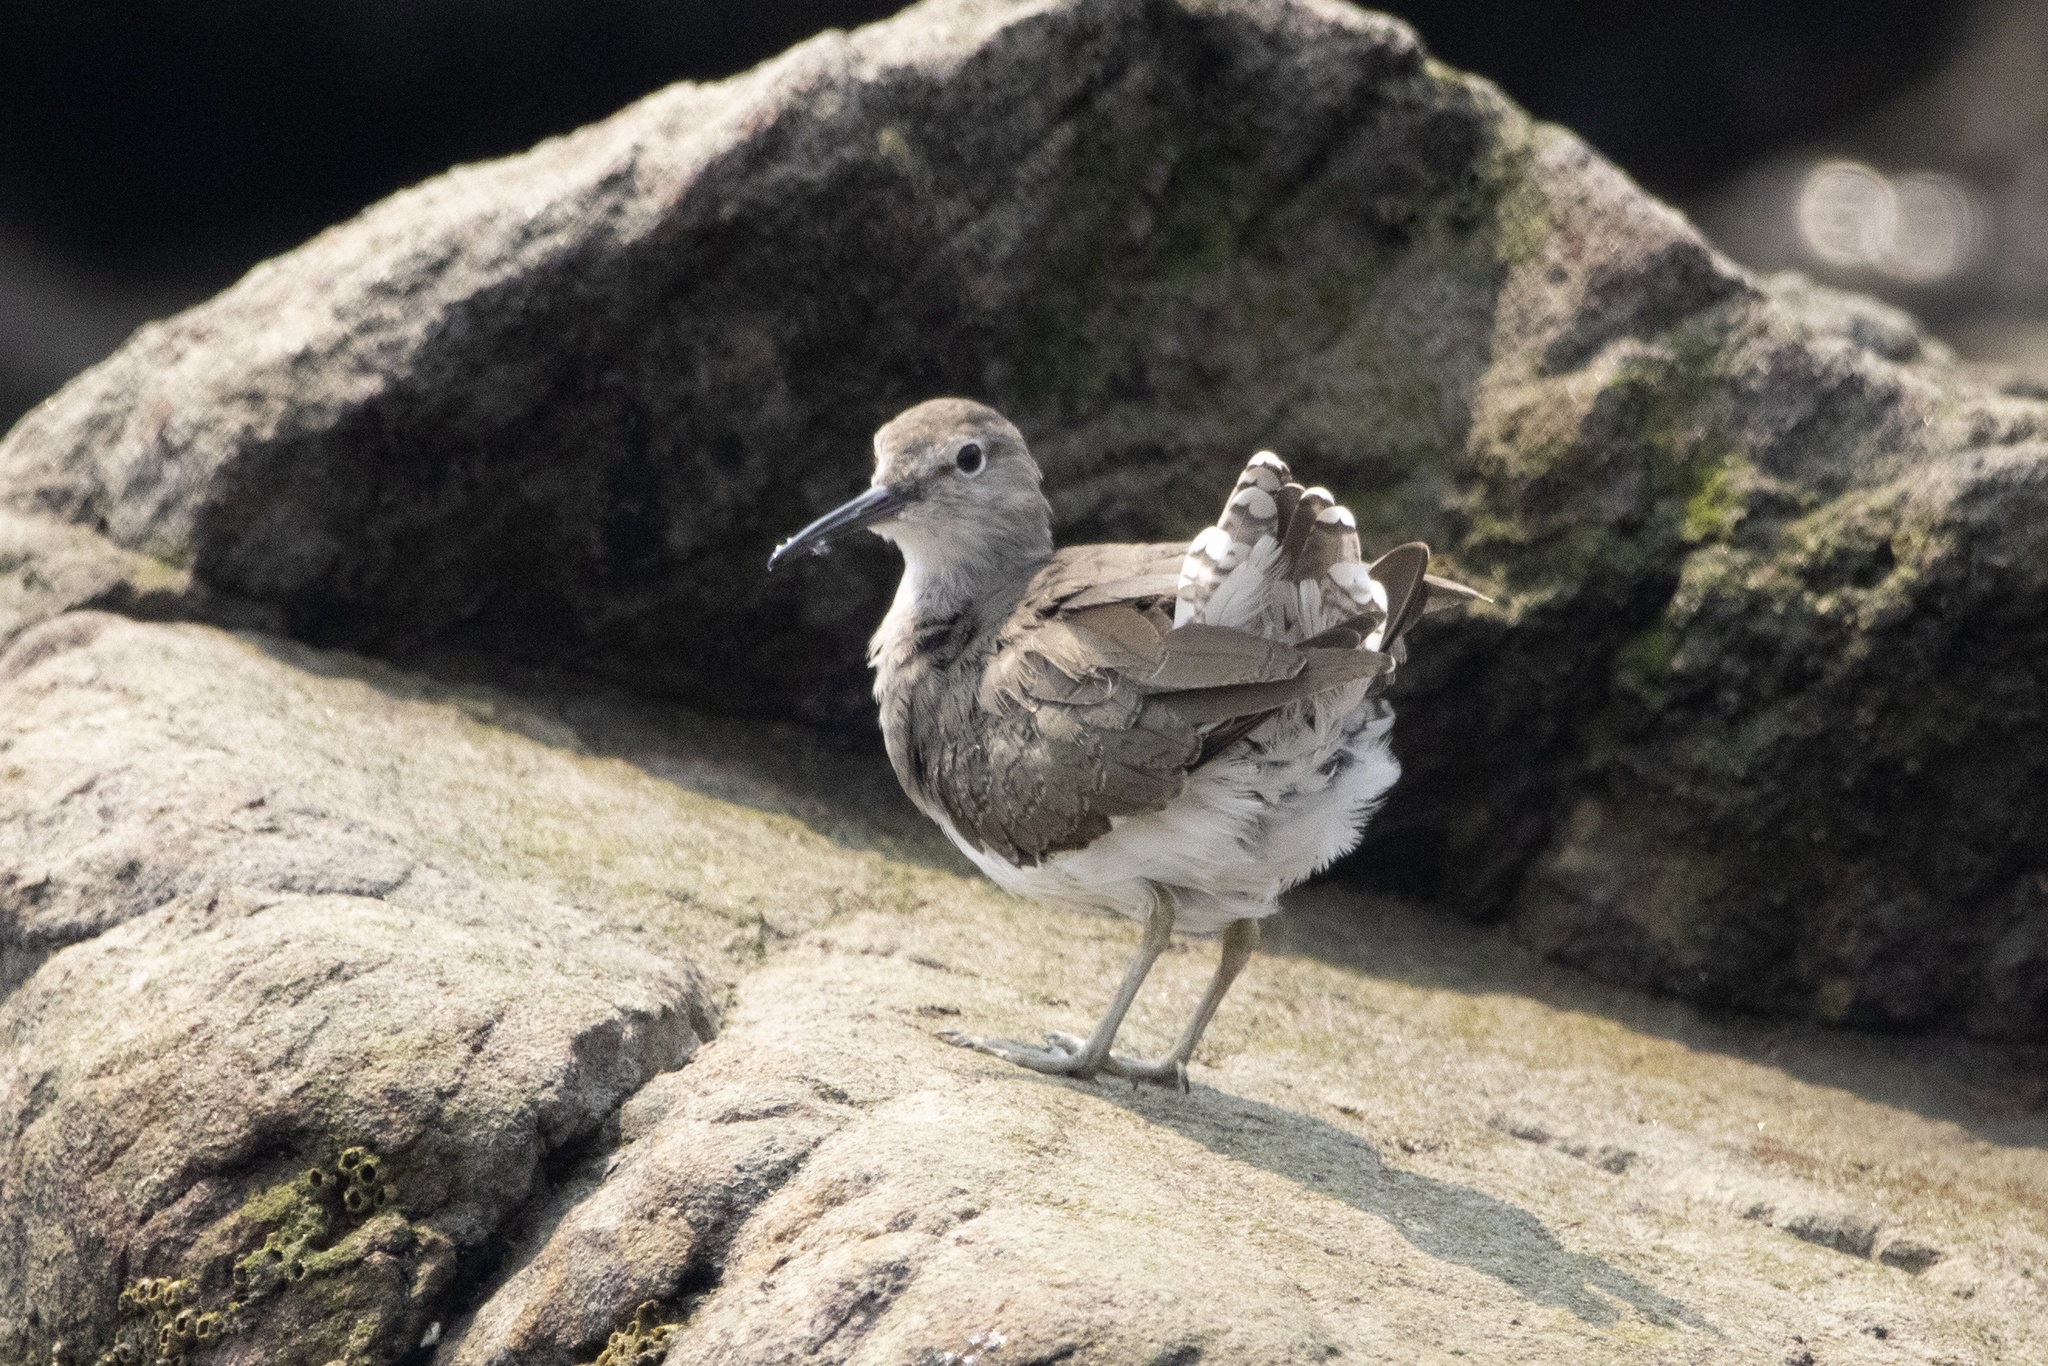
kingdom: Animalia
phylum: Chordata
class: Aves
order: Charadriiformes
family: Scolopacidae
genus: Actitis
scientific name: Actitis hypoleucos
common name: Common sandpiper
